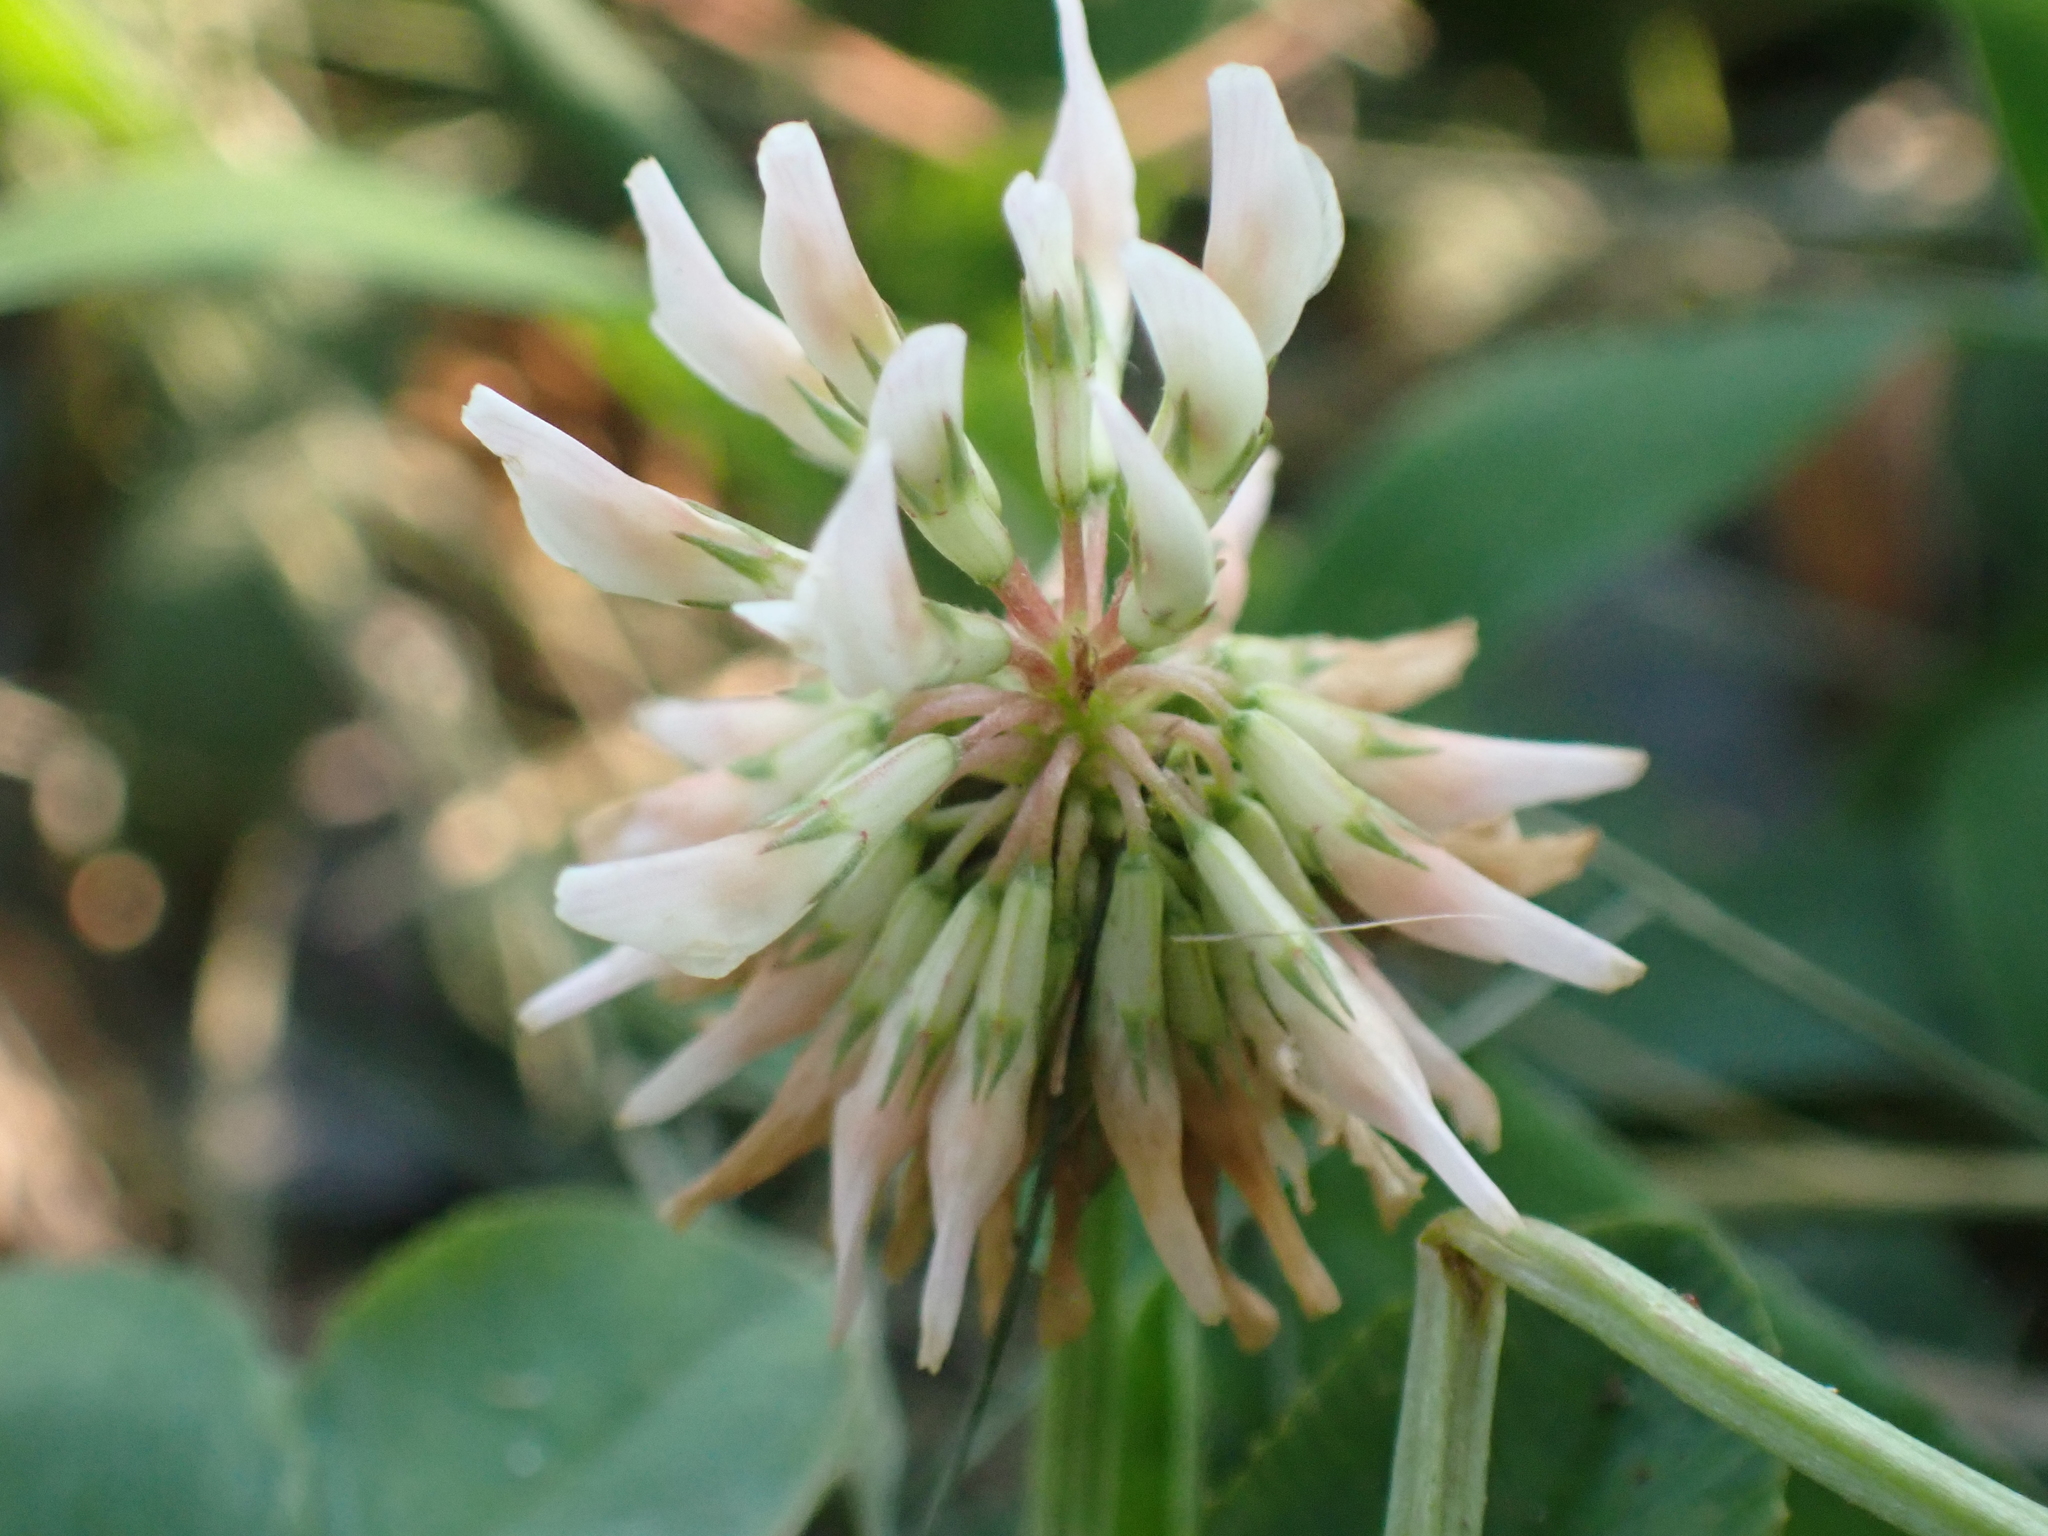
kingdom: Plantae
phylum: Tracheophyta
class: Magnoliopsida
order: Fabales
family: Fabaceae
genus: Trifolium
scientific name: Trifolium repens
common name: White clover
